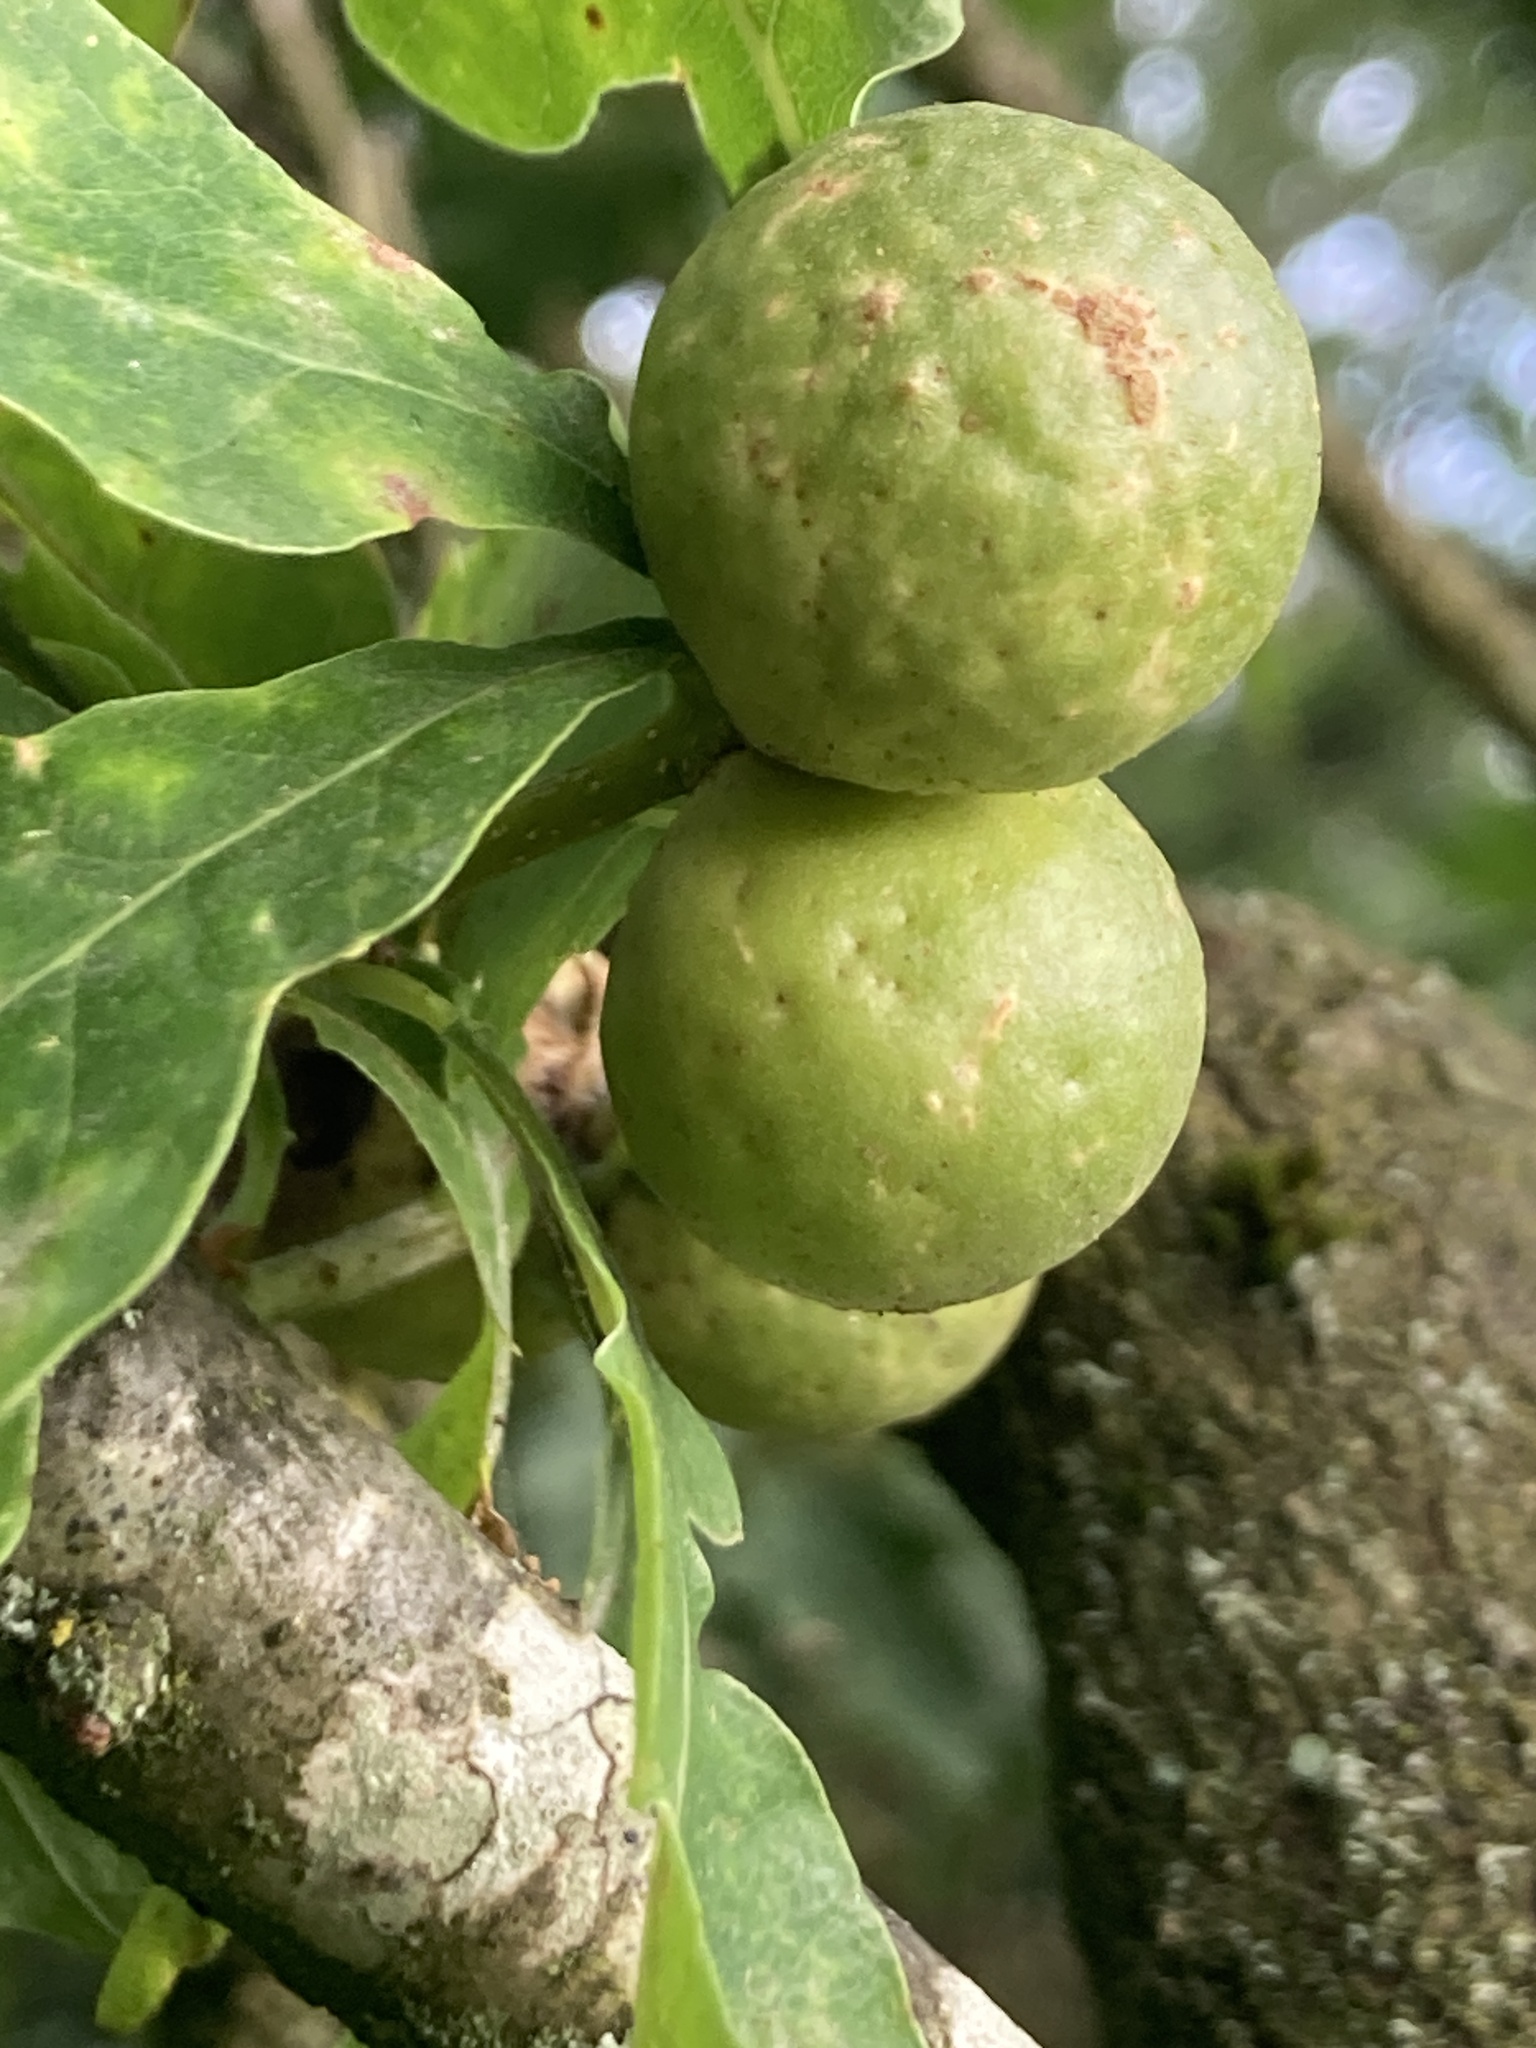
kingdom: Animalia
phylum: Arthropoda
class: Insecta
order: Hymenoptera
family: Cynipidae
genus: Andricus
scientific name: Andricus kollari
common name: Marble gall
